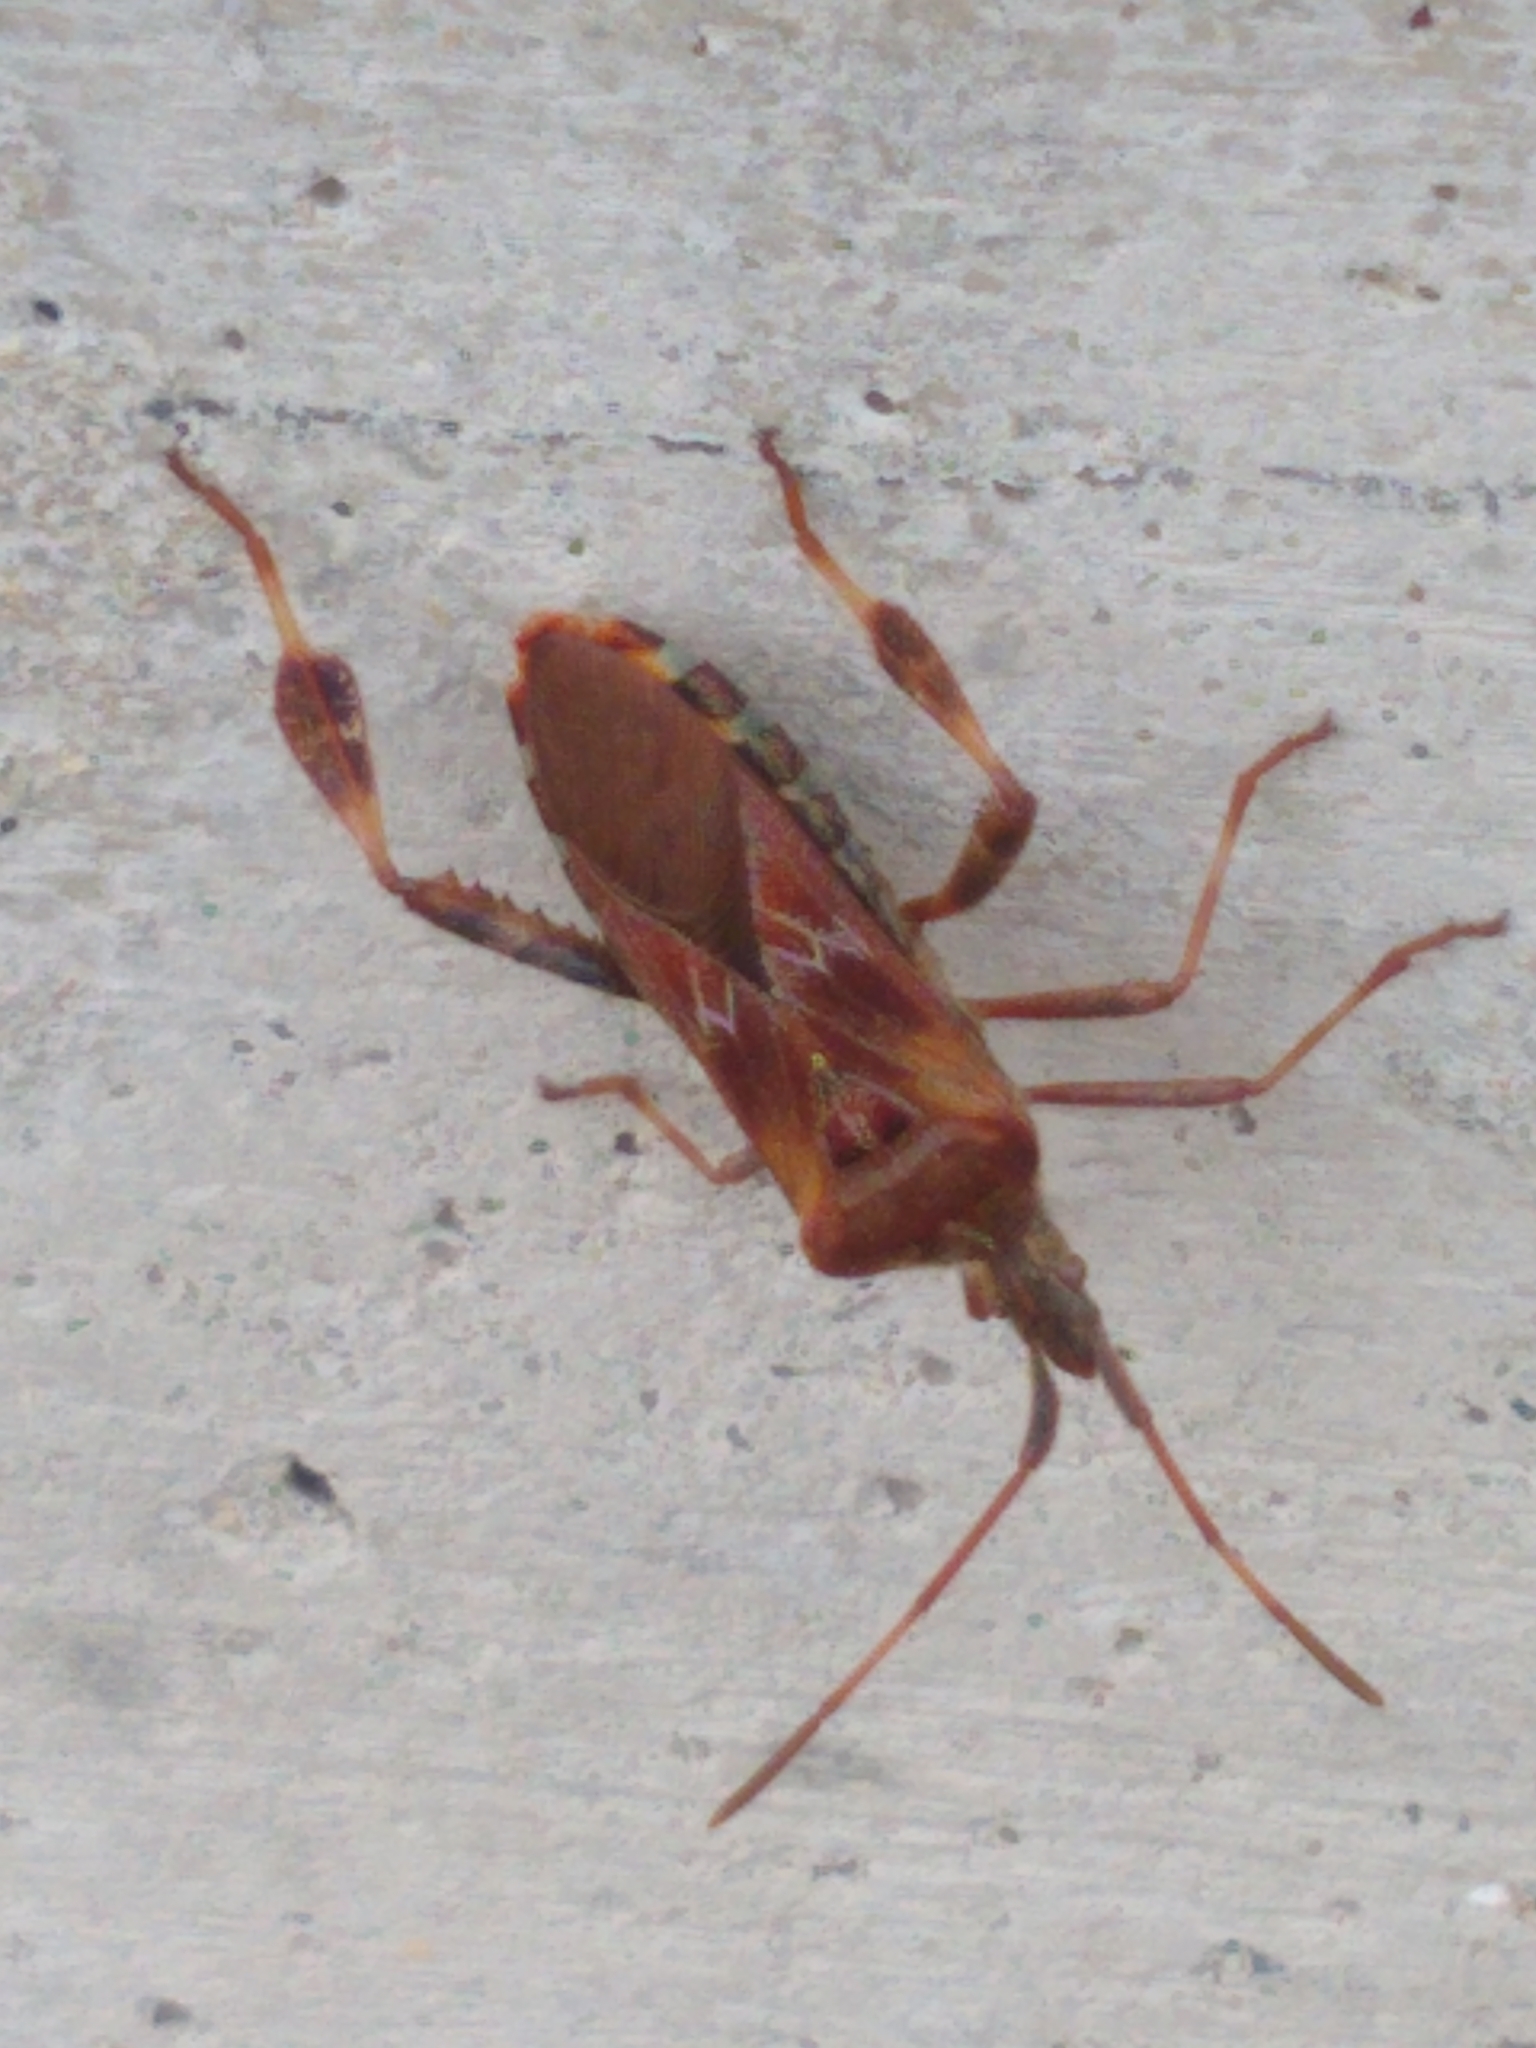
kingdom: Animalia
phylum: Arthropoda
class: Insecta
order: Hemiptera
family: Coreidae
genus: Leptoglossus
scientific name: Leptoglossus occidentalis
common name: Western conifer-seed bug
